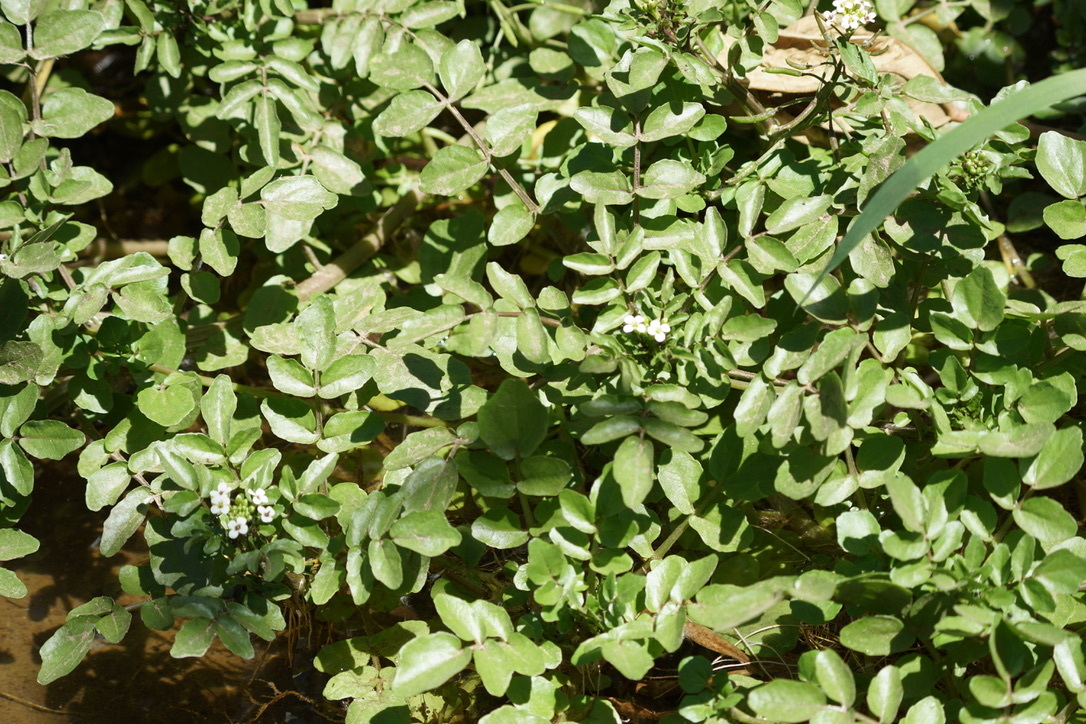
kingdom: Plantae
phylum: Tracheophyta
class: Magnoliopsida
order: Brassicales
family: Brassicaceae
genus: Nasturtium
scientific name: Nasturtium officinale
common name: Watercress
